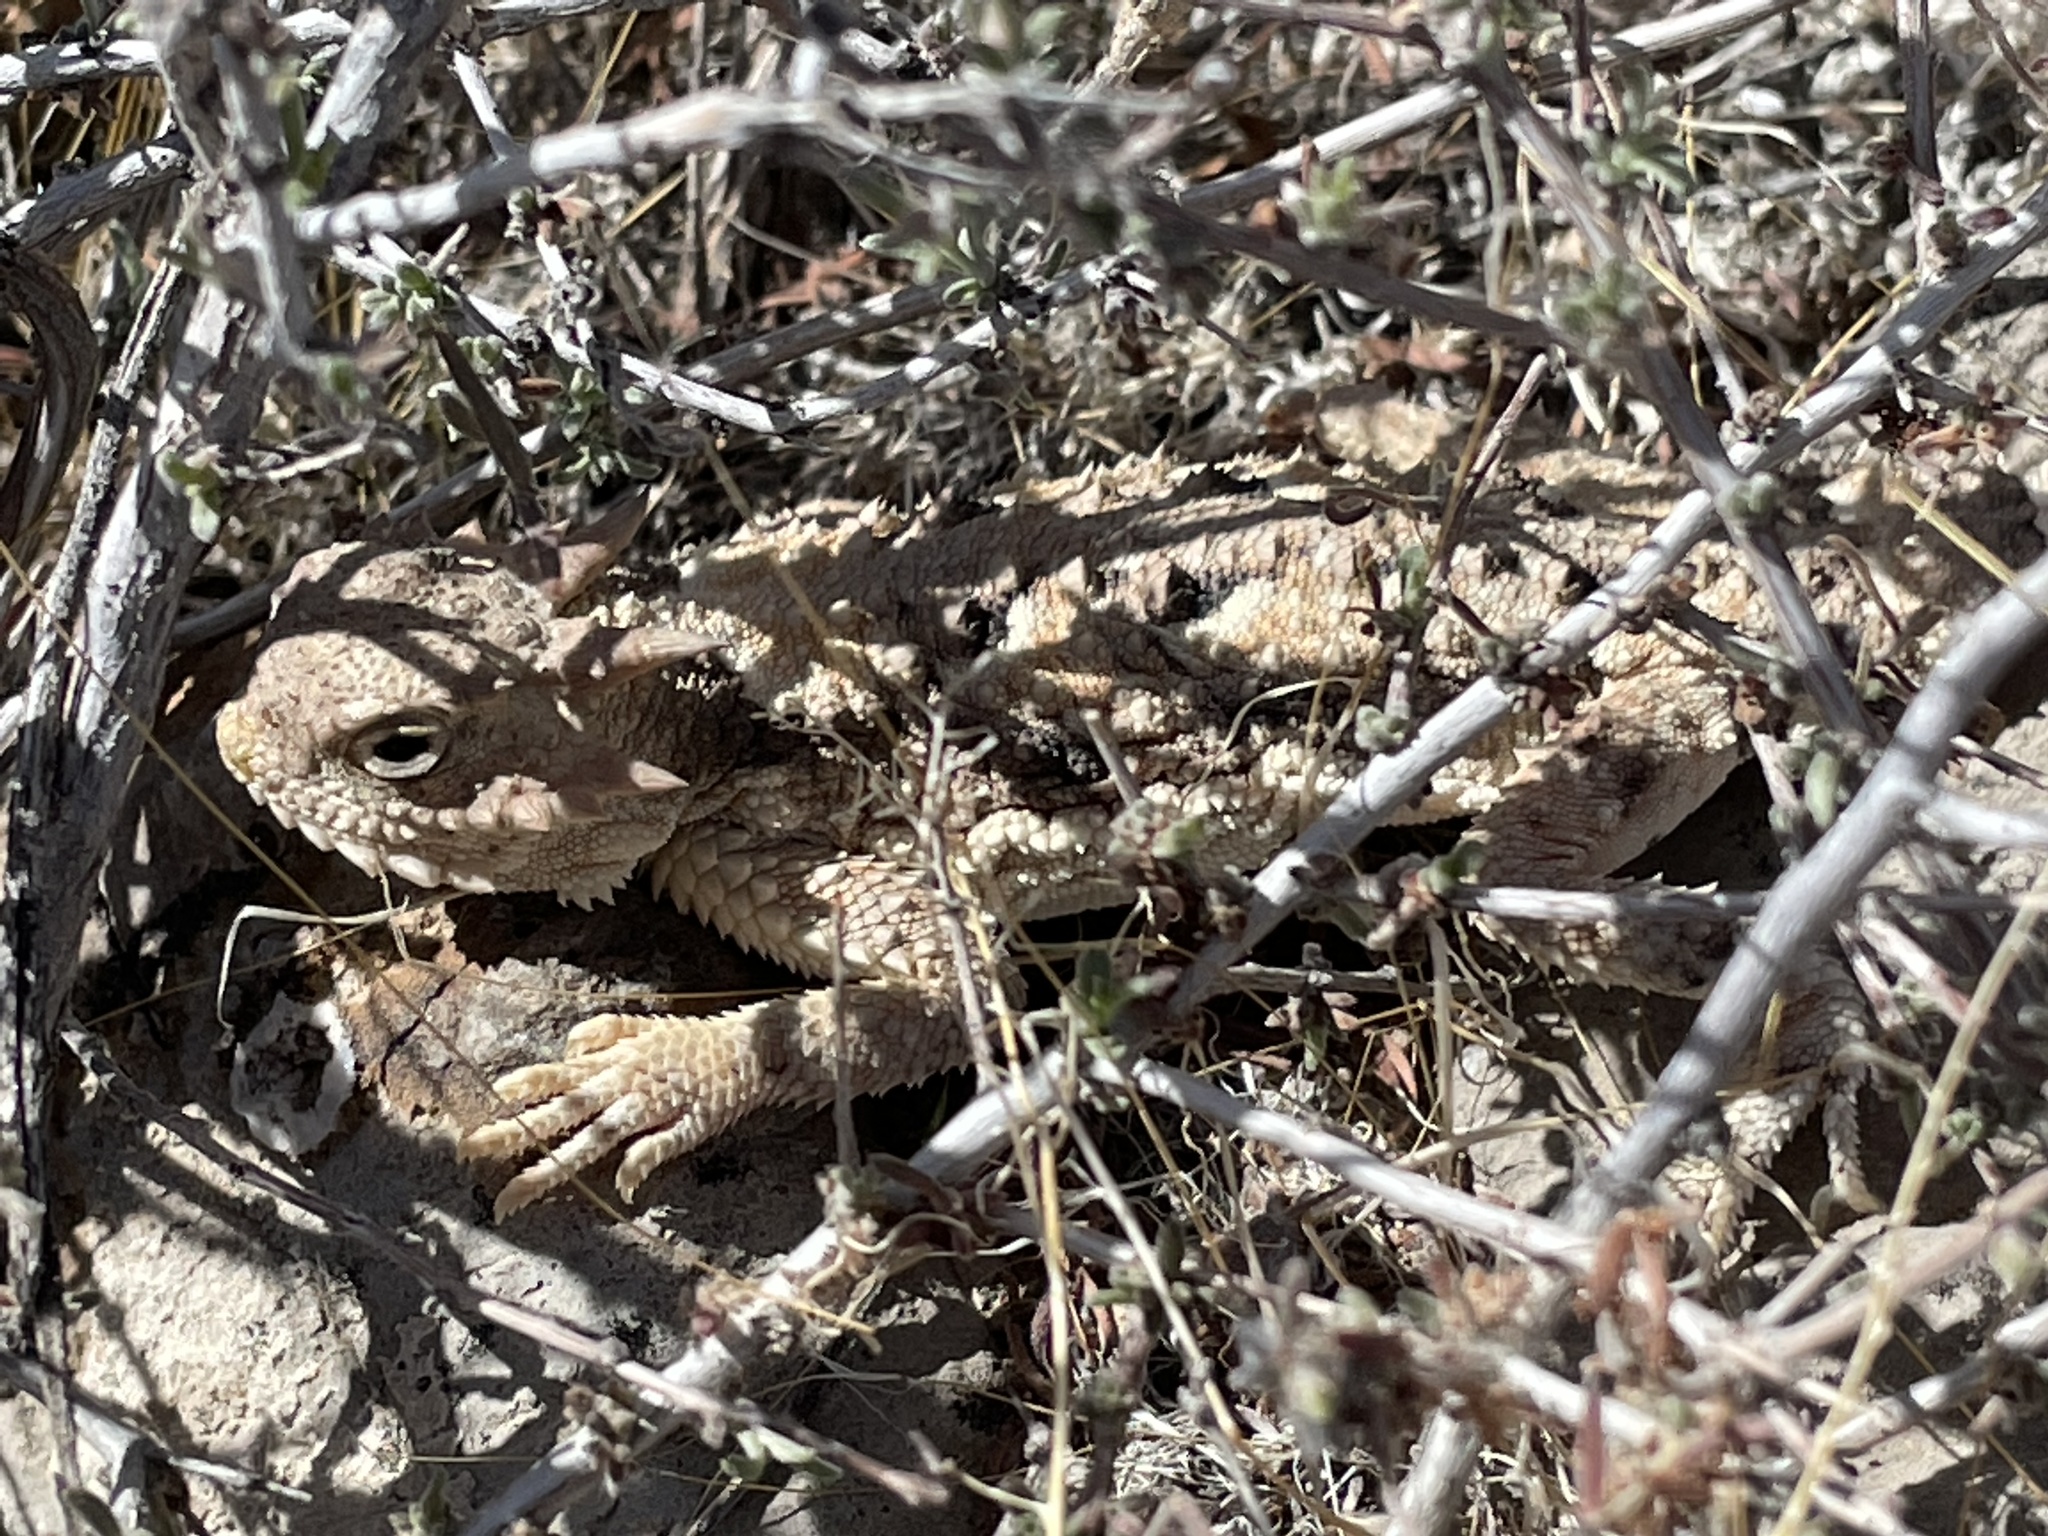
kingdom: Animalia
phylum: Chordata
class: Squamata
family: Phrynosomatidae
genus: Phrynosoma
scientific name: Phrynosoma platyrhinos
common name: Desert horned lizard
